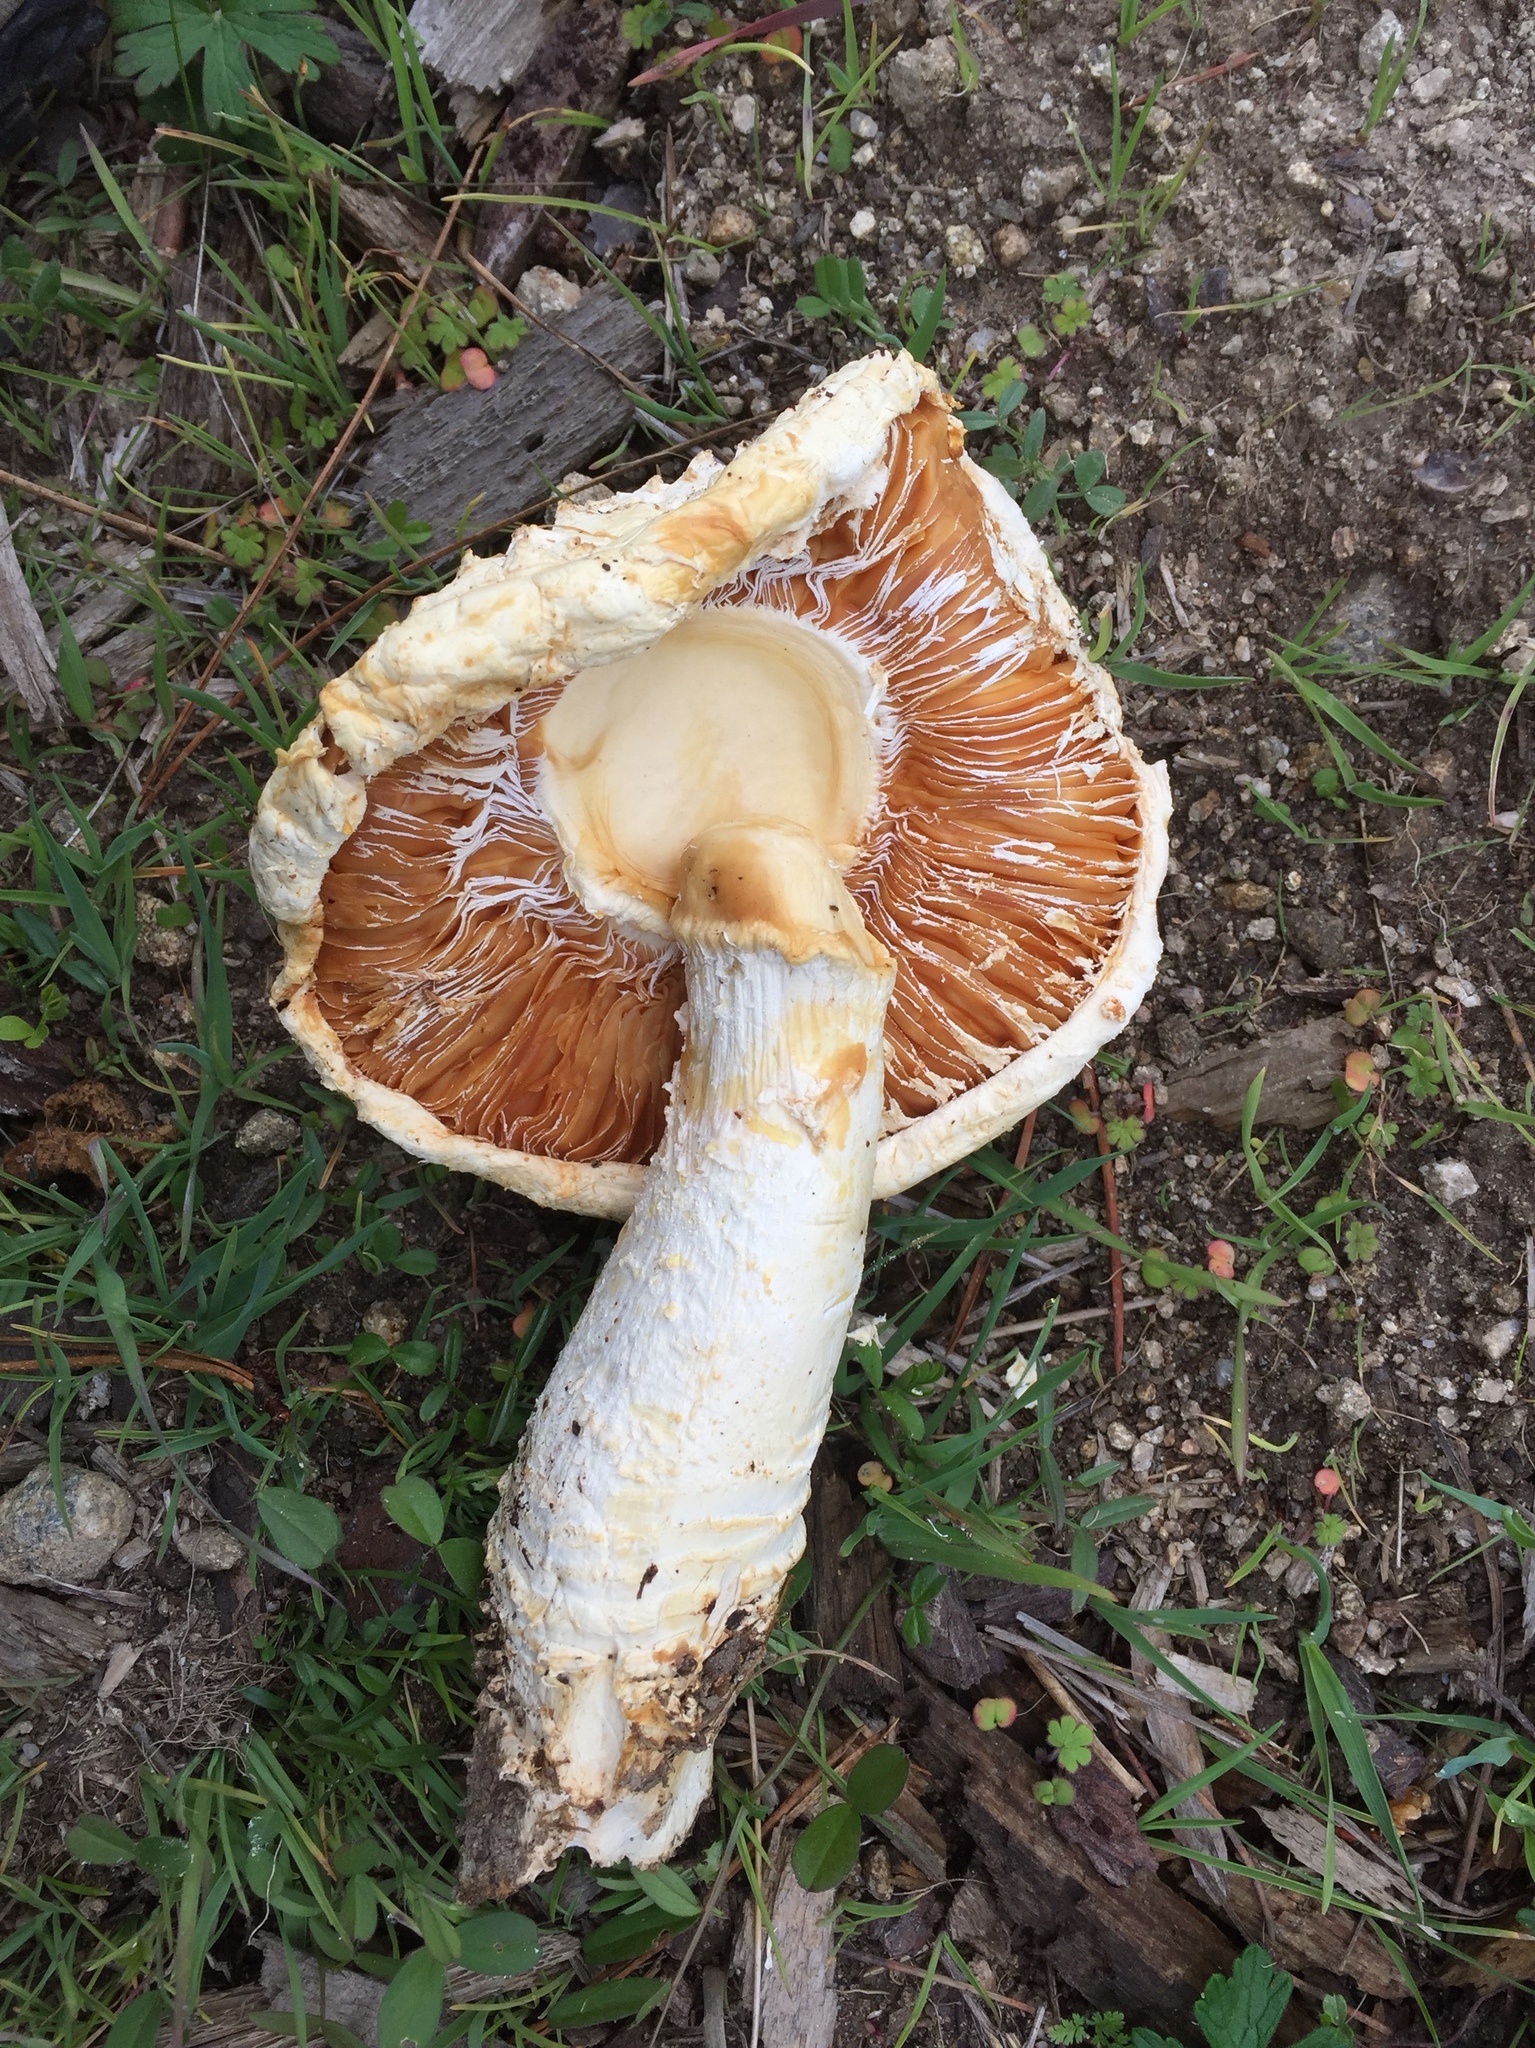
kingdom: Fungi
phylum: Basidiomycota
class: Agaricomycetes
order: Agaricales
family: Amanitaceae
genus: Amanita
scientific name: Amanita magniverrucata
